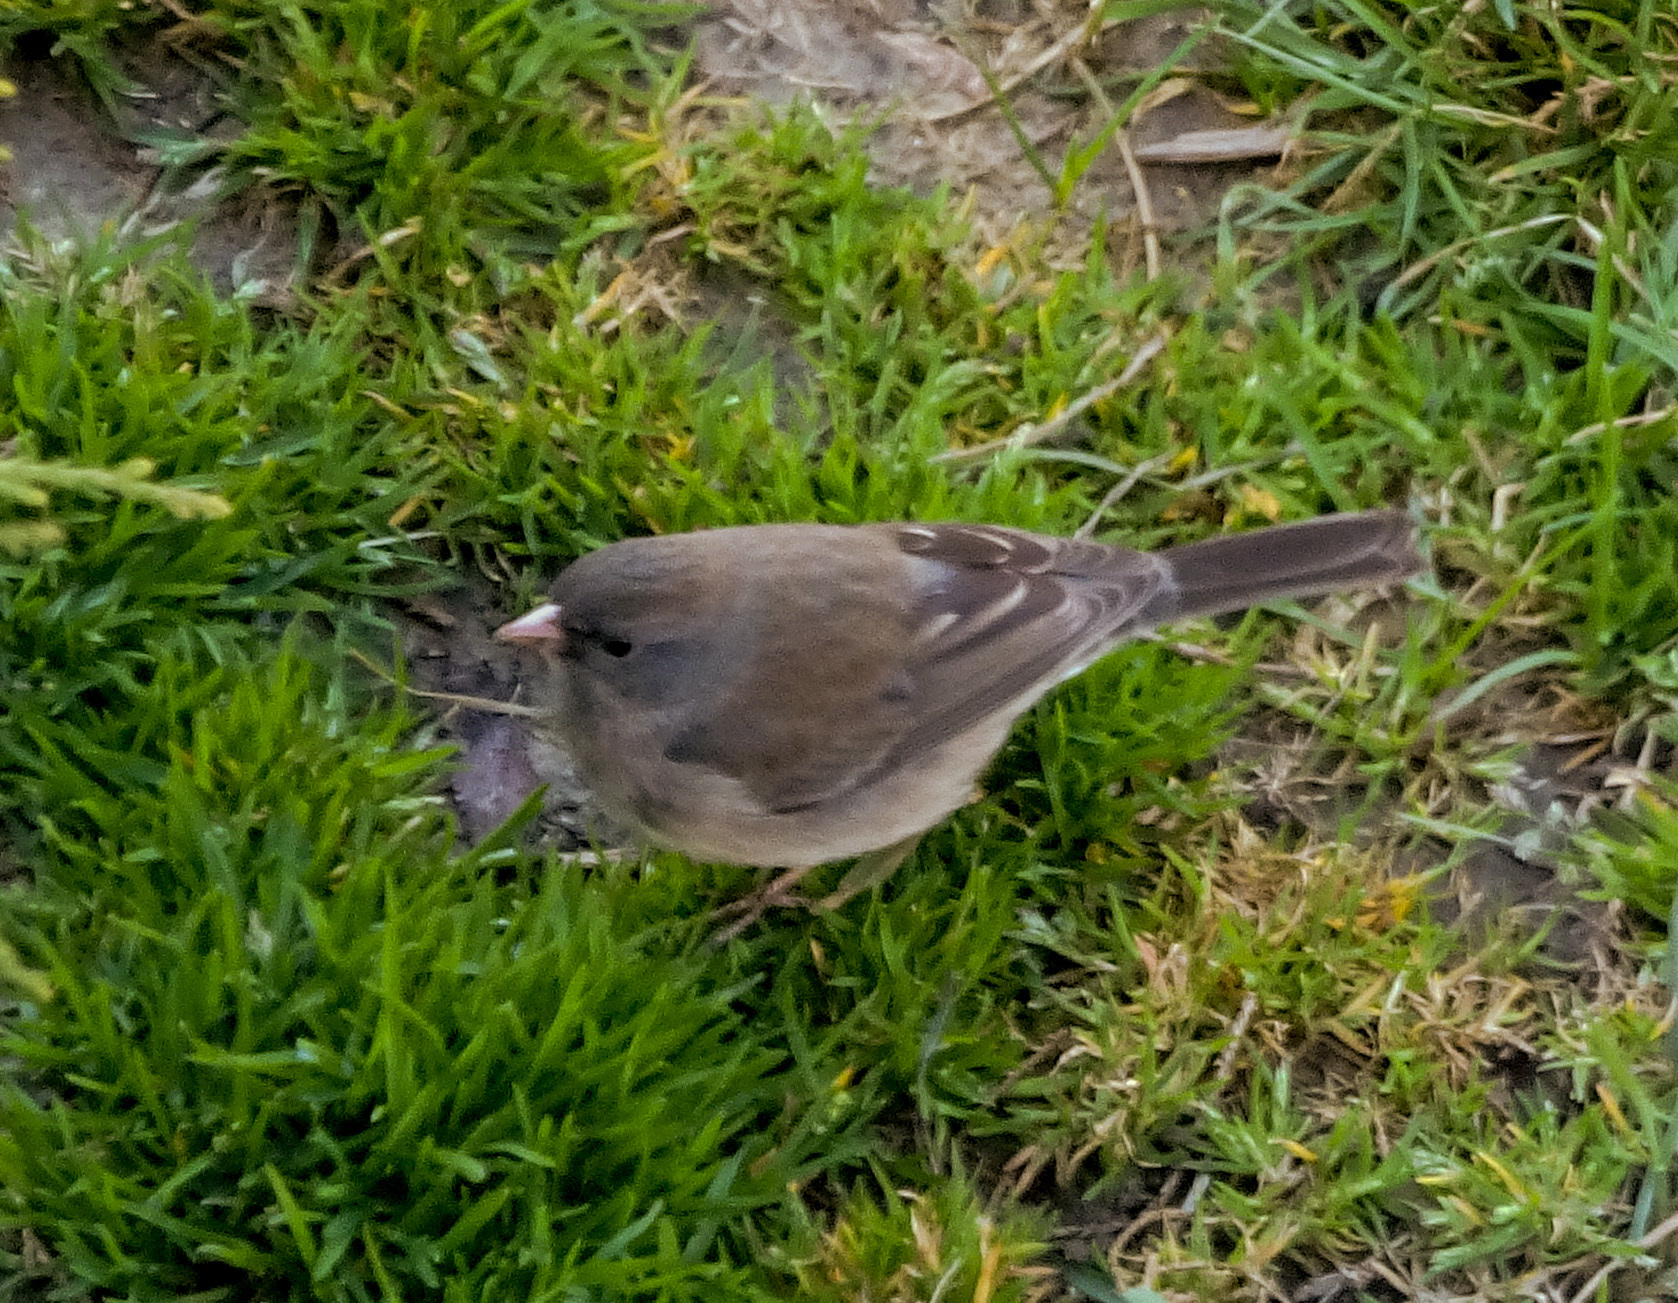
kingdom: Animalia
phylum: Chordata
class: Aves
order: Passeriformes
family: Passerellidae
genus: Junco
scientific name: Junco hyemalis
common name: Dark-eyed junco
